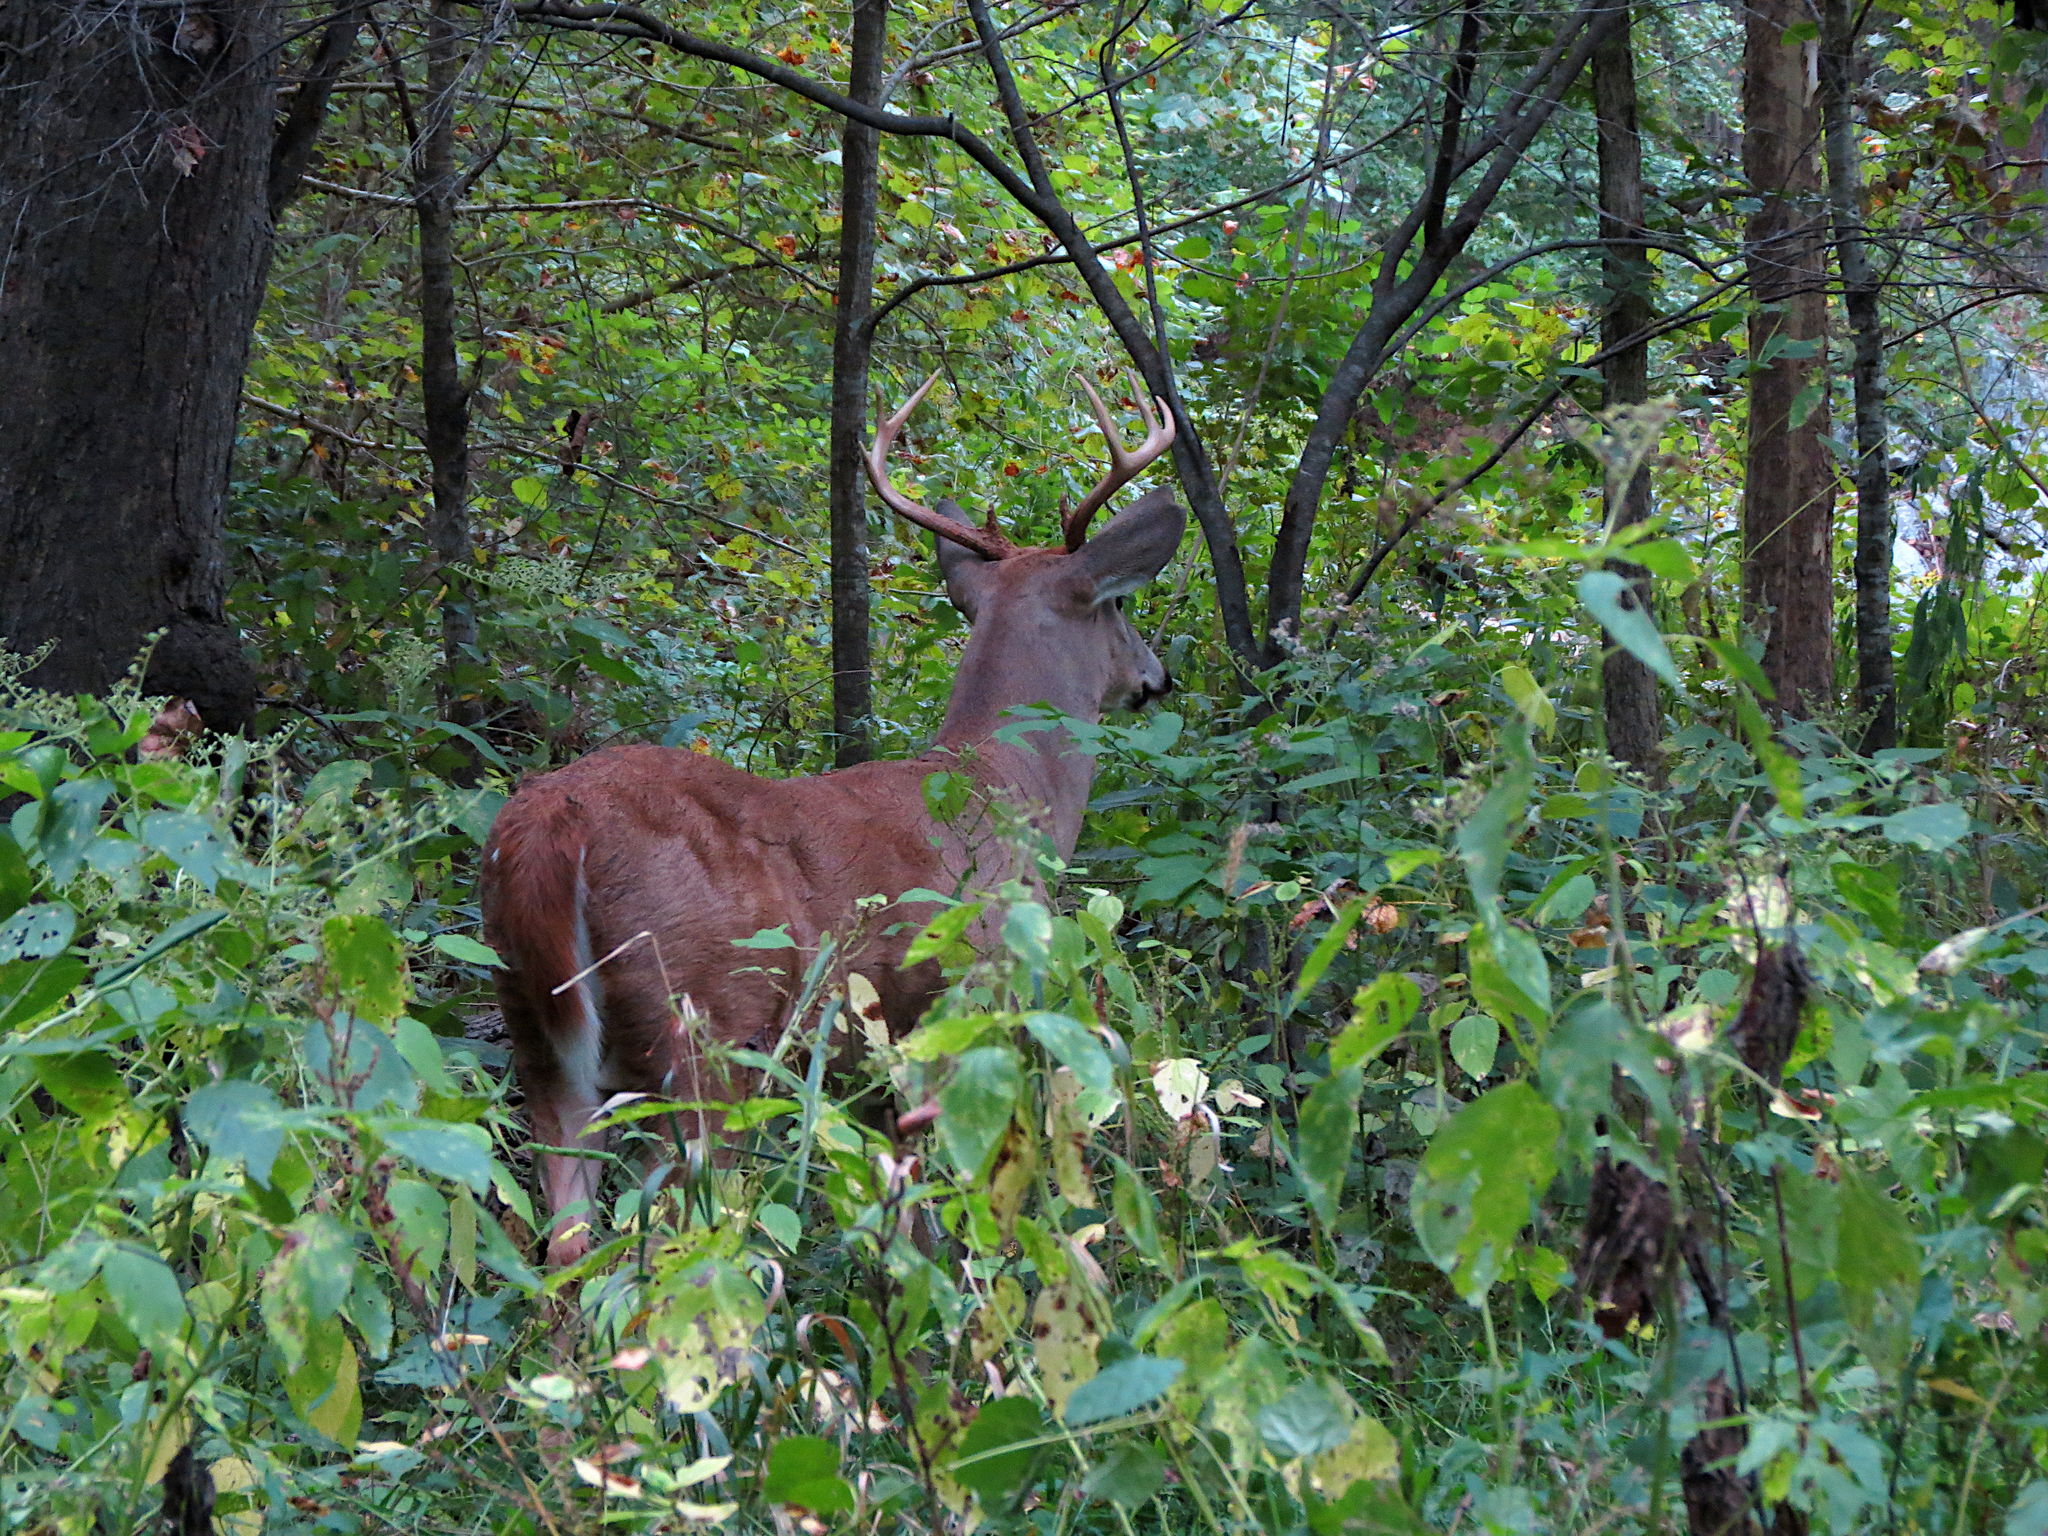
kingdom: Animalia
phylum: Chordata
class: Mammalia
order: Artiodactyla
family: Cervidae
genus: Odocoileus
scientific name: Odocoileus virginianus
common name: White-tailed deer
